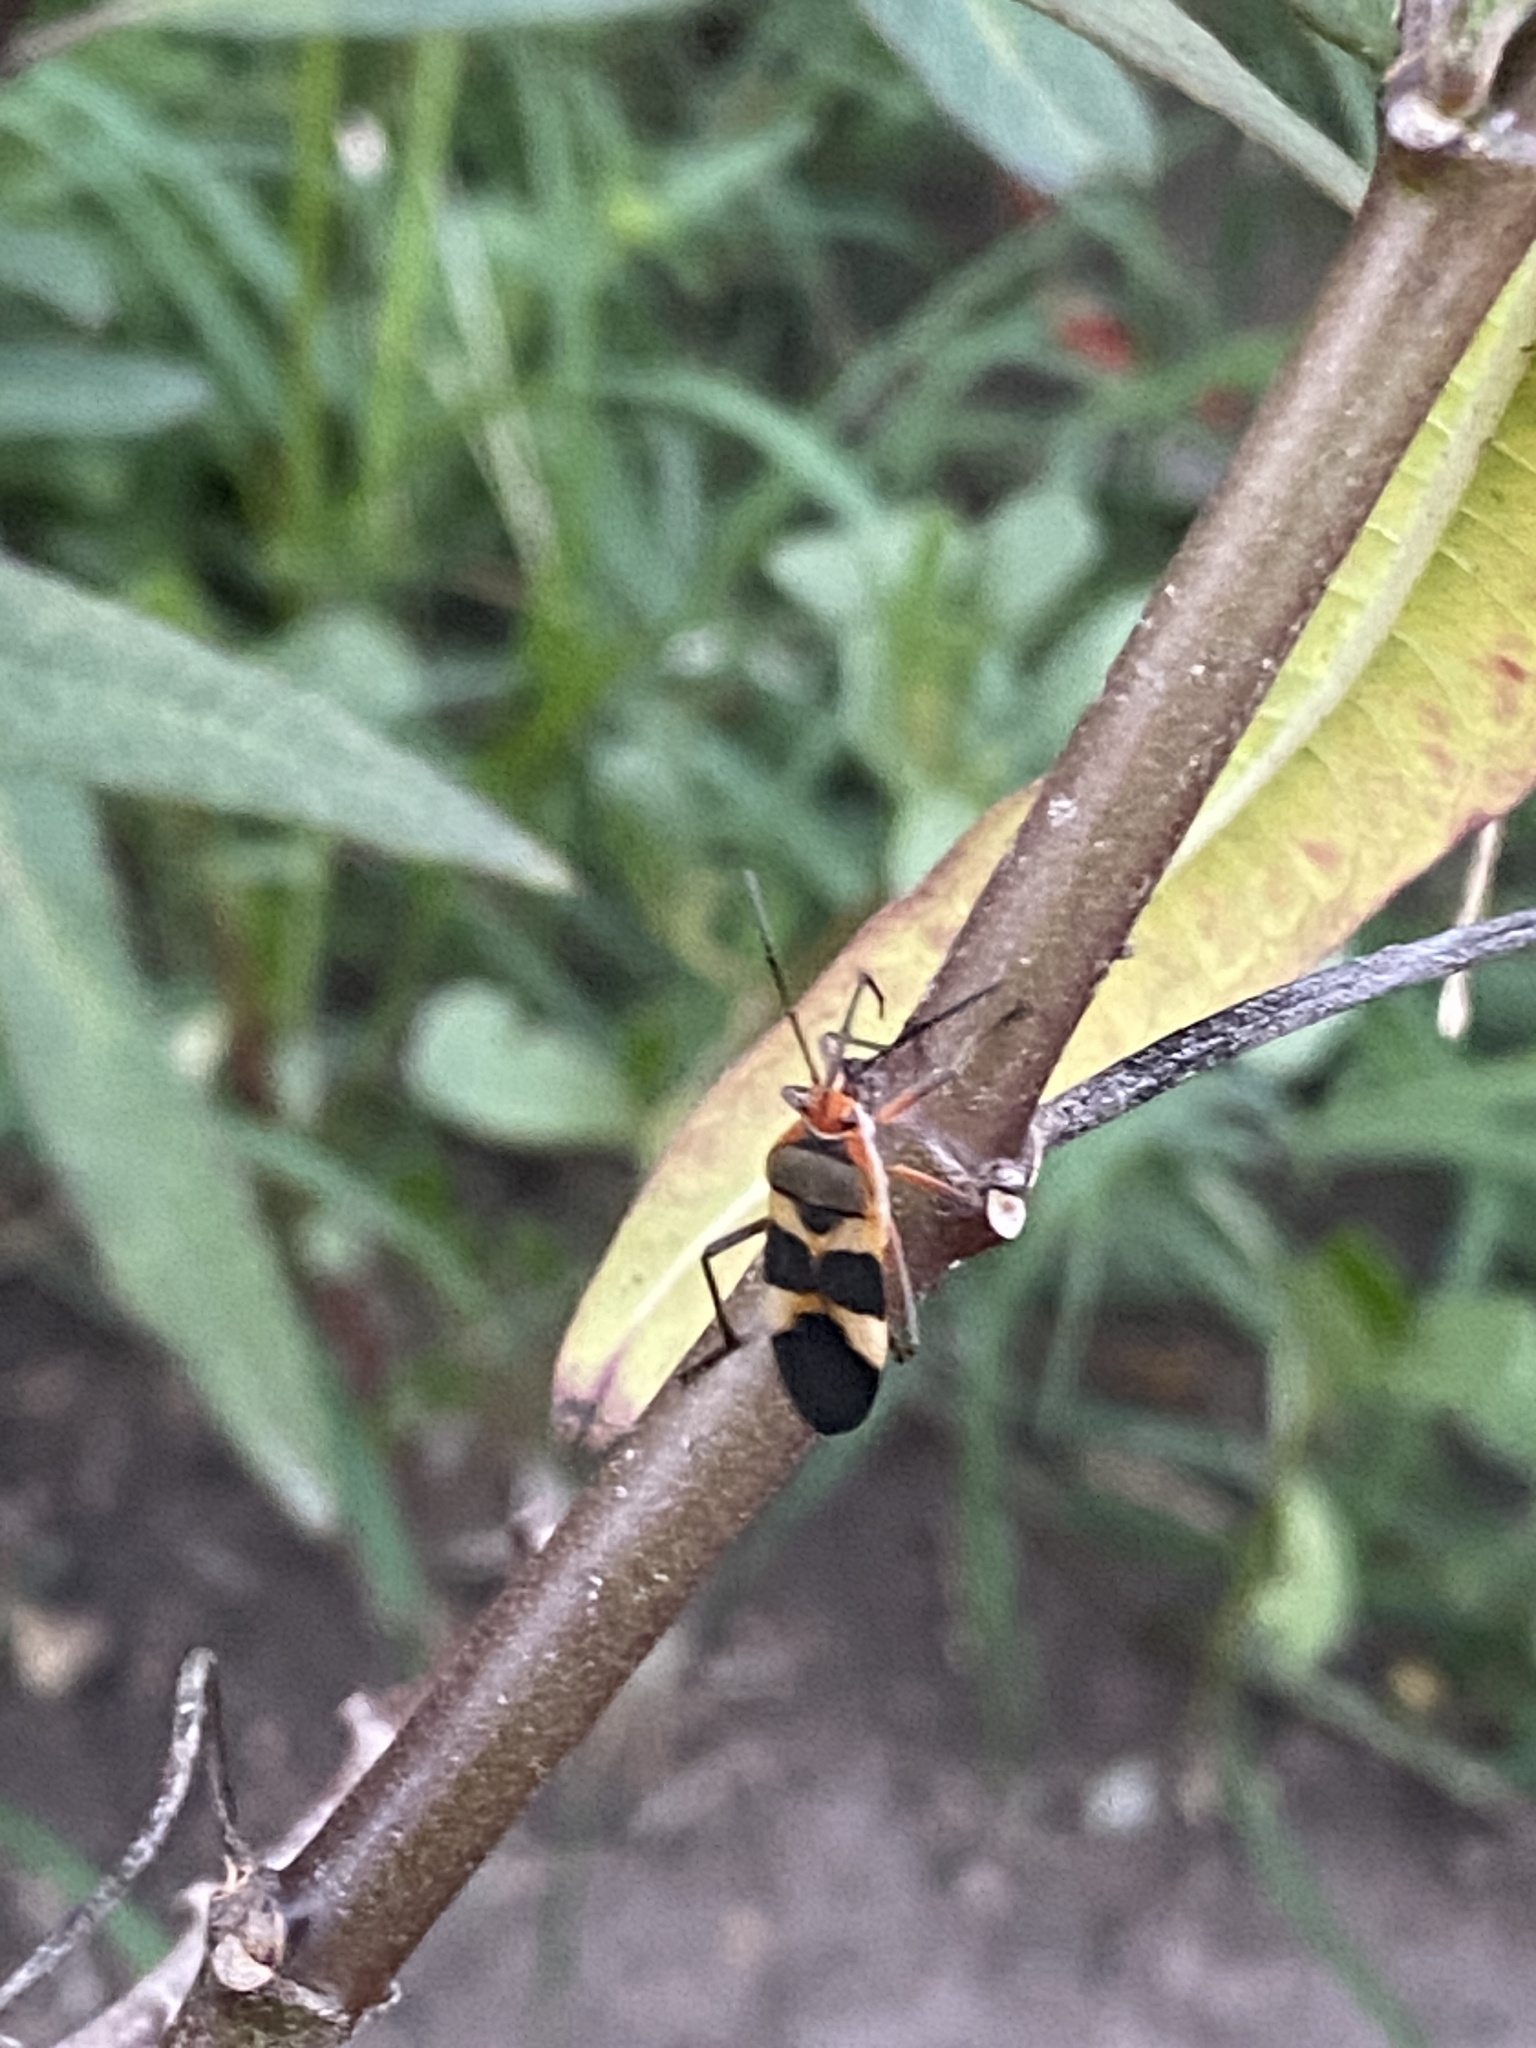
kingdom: Animalia
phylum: Arthropoda
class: Insecta
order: Hemiptera
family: Lygaeidae
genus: Oncopeltus
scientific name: Oncopeltus unifasciatellus
